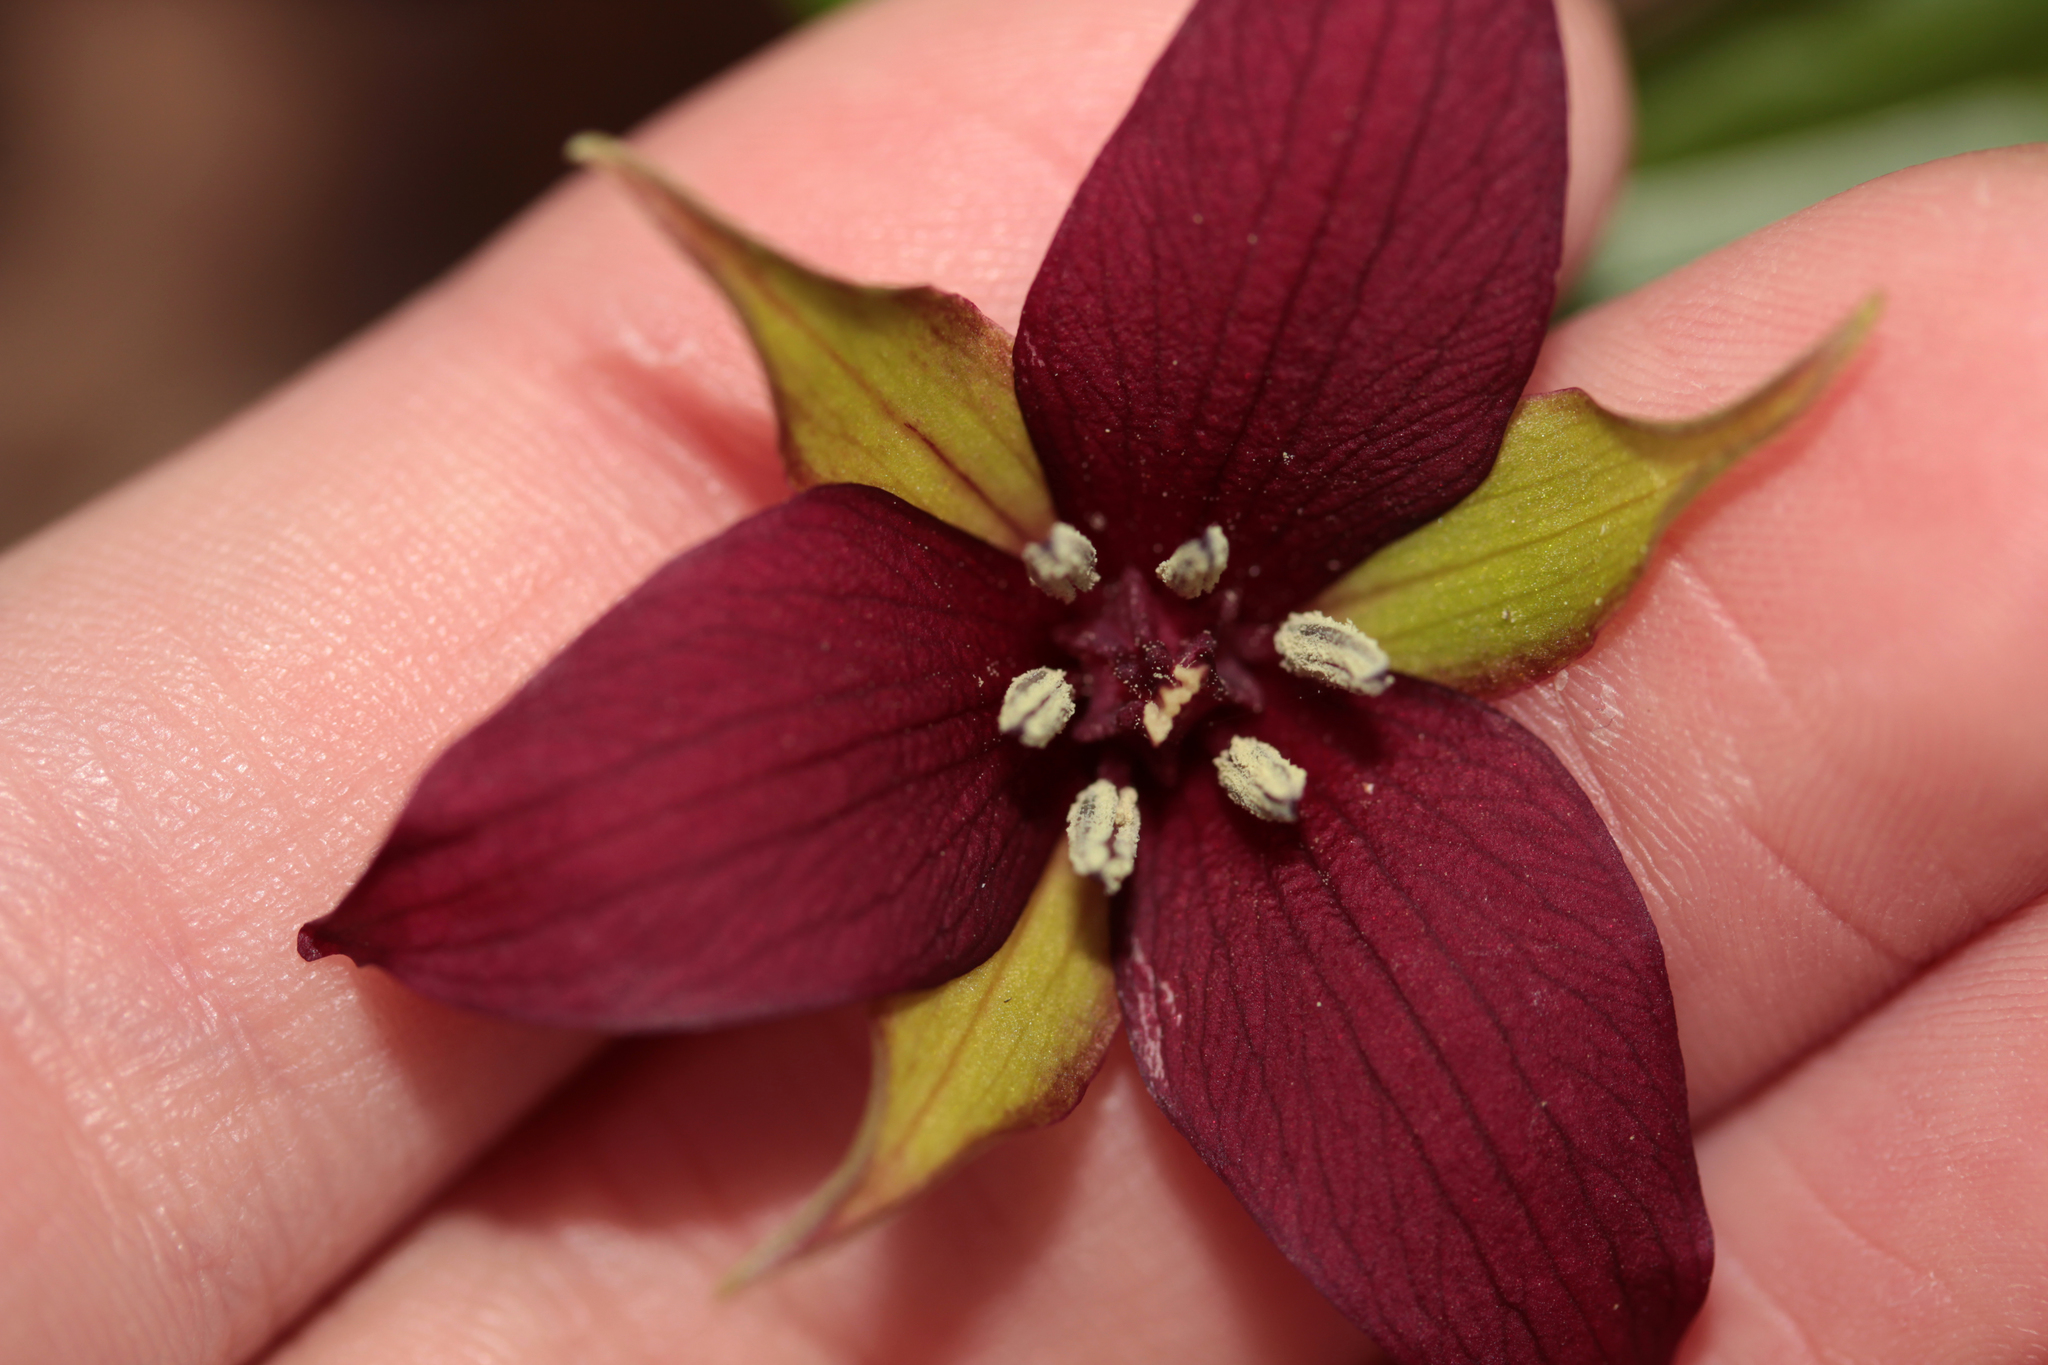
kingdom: Plantae
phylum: Tracheophyta
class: Liliopsida
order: Liliales
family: Melanthiaceae
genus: Trillium
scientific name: Trillium erectum
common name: Purple trillium
